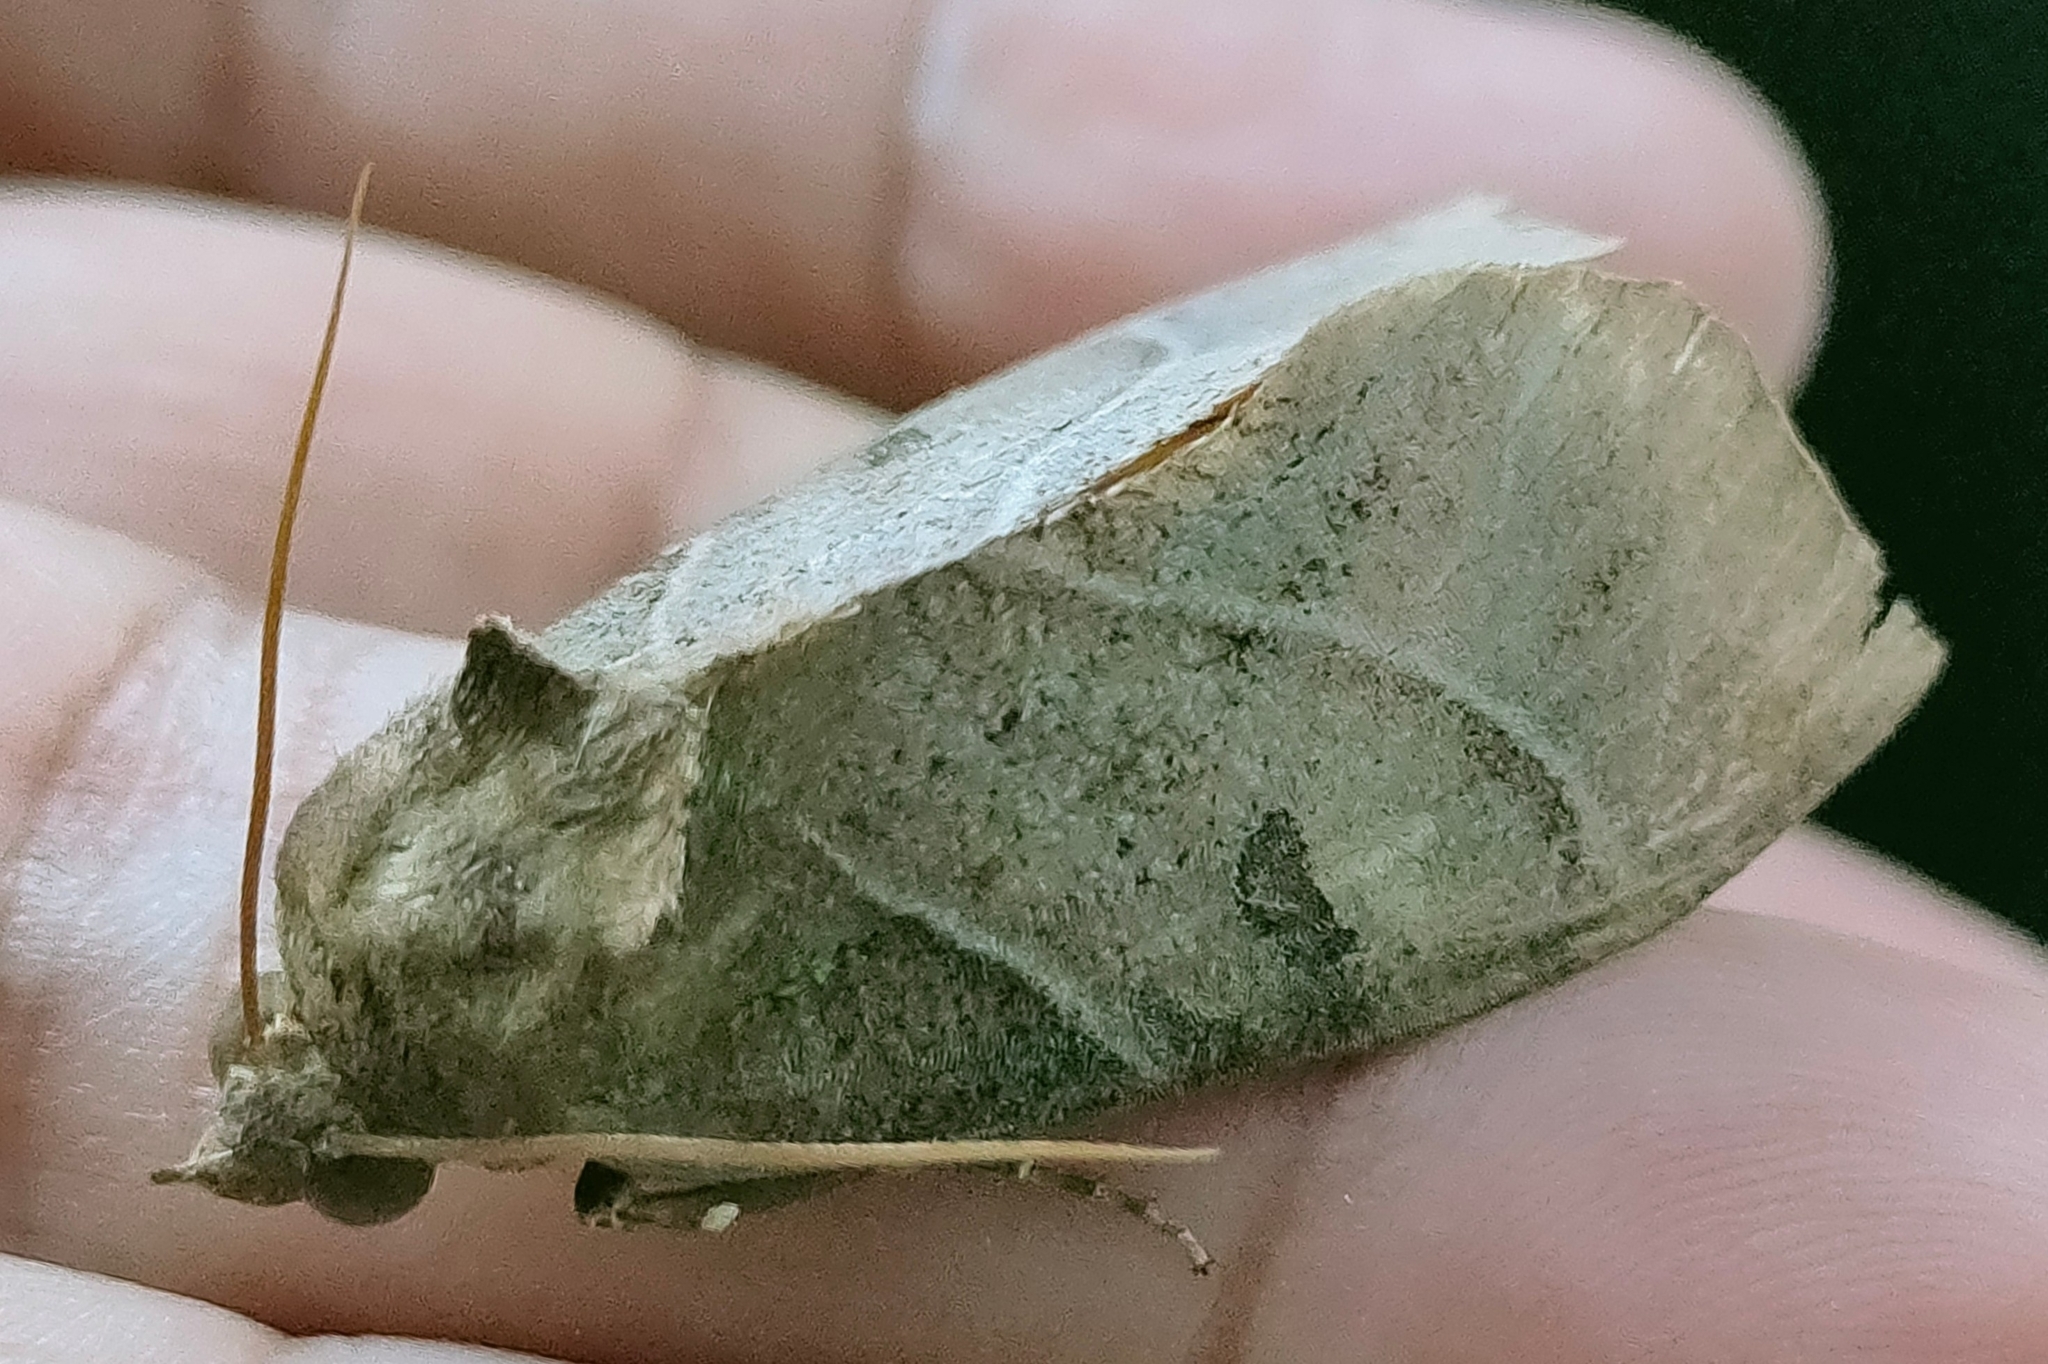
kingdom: Animalia
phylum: Arthropoda
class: Insecta
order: Lepidoptera
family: Erebidae
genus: Eudocima
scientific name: Eudocima cajeta
